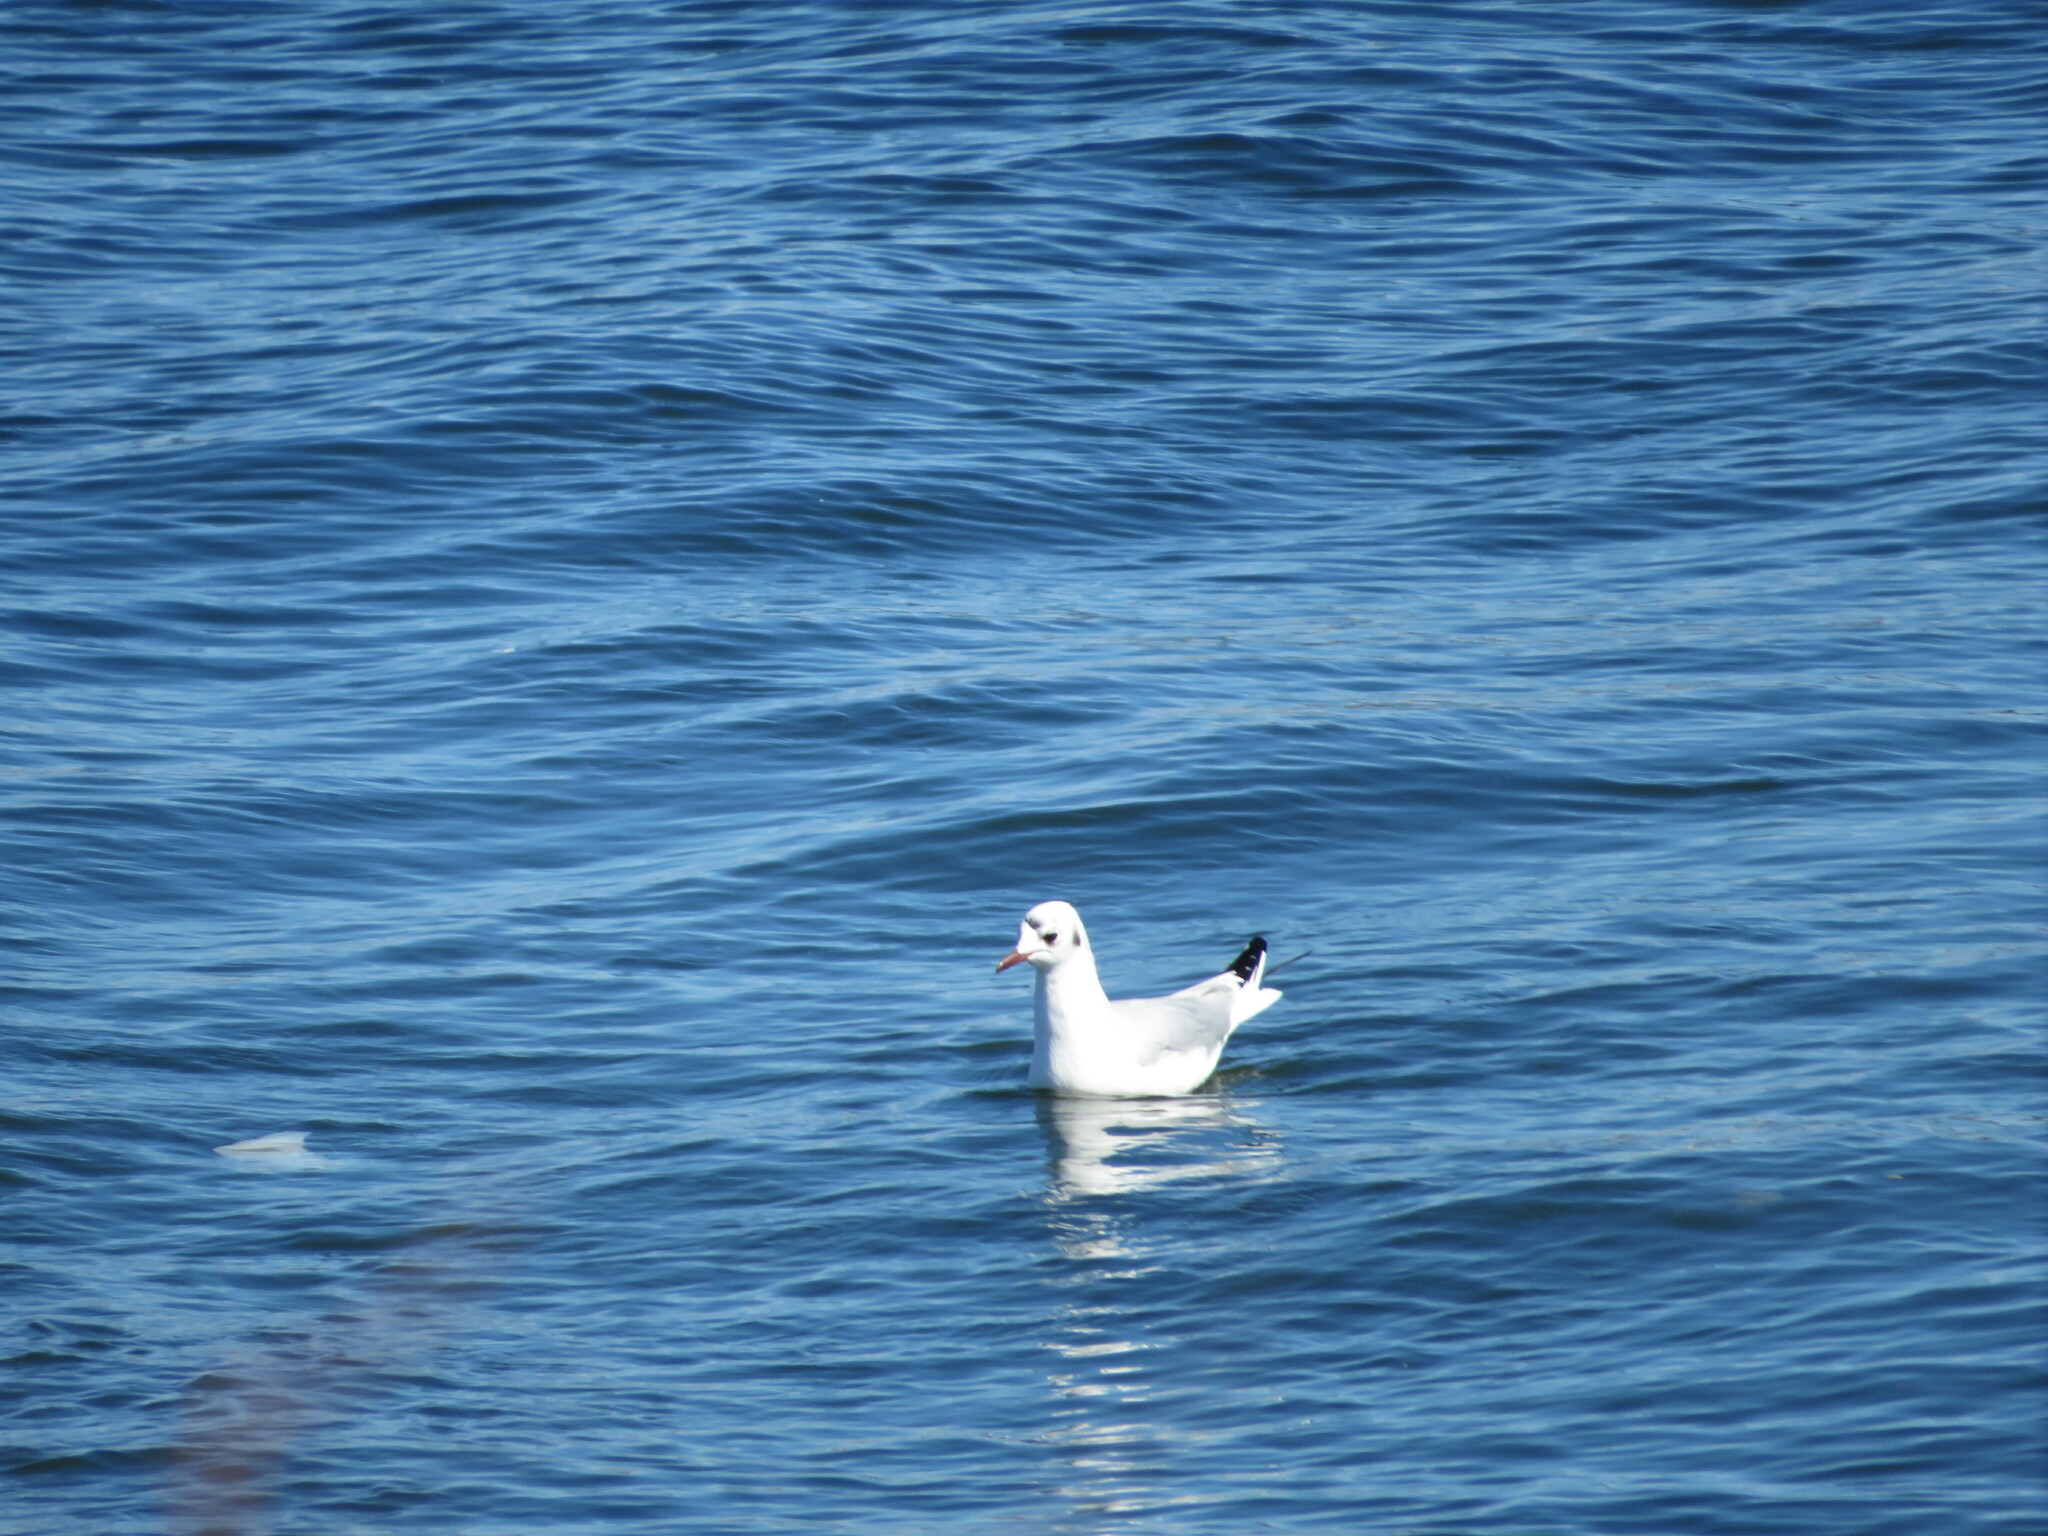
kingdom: Animalia
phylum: Chordata
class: Aves
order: Charadriiformes
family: Laridae
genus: Chroicocephalus
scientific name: Chroicocephalus ridibundus
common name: Black-headed gull
